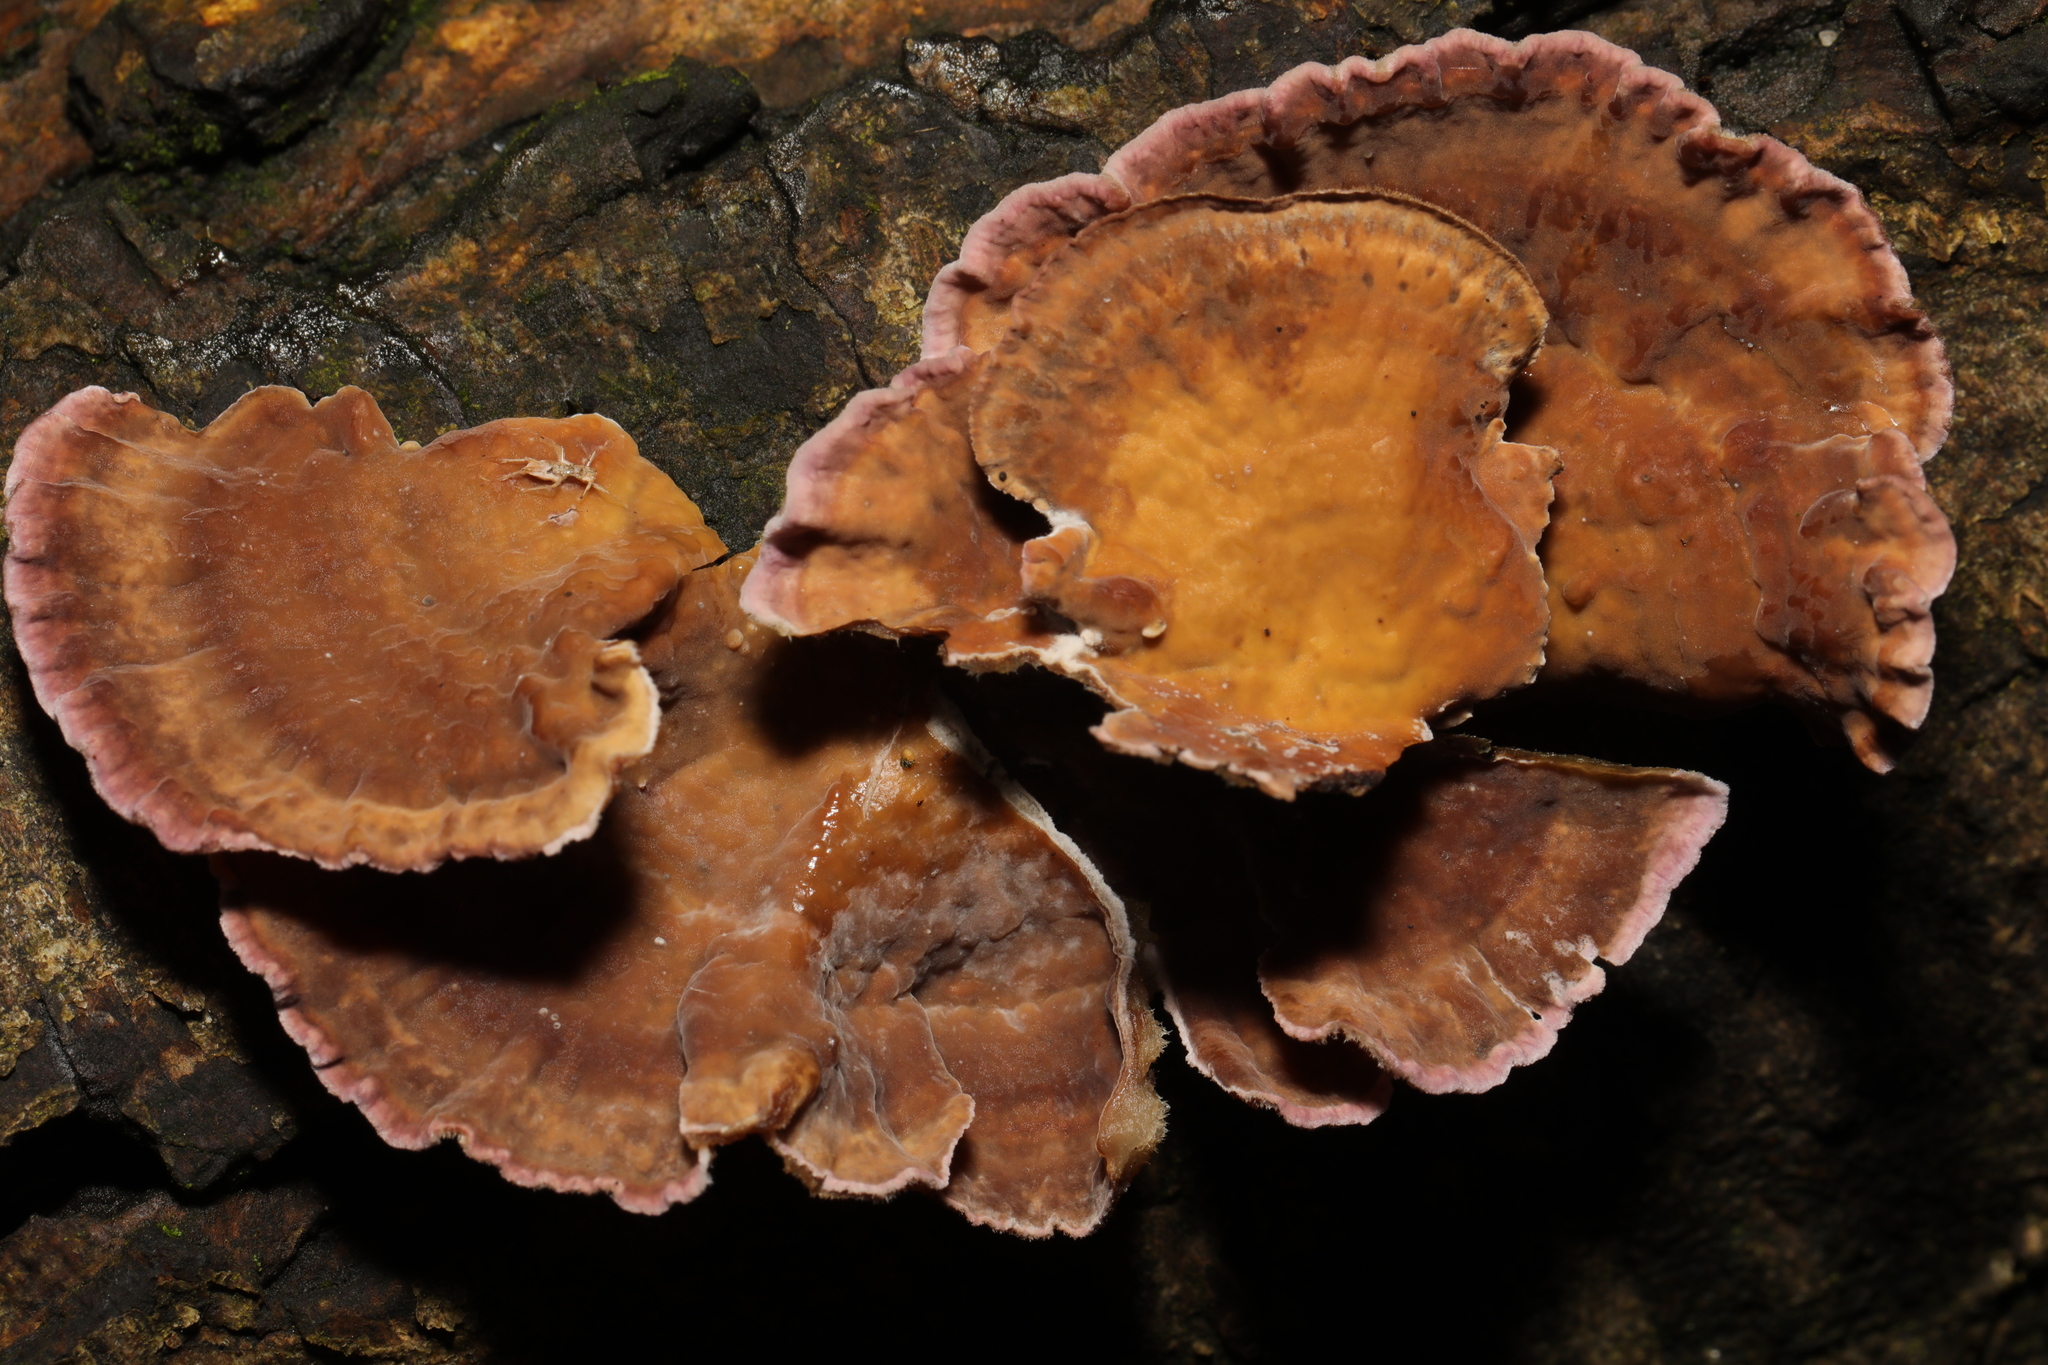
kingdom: Fungi
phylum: Basidiomycota
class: Agaricomycetes
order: Agaricales
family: Cyphellaceae
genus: Chondrostereum
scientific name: Chondrostereum purpureum
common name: Silver leaf disease
